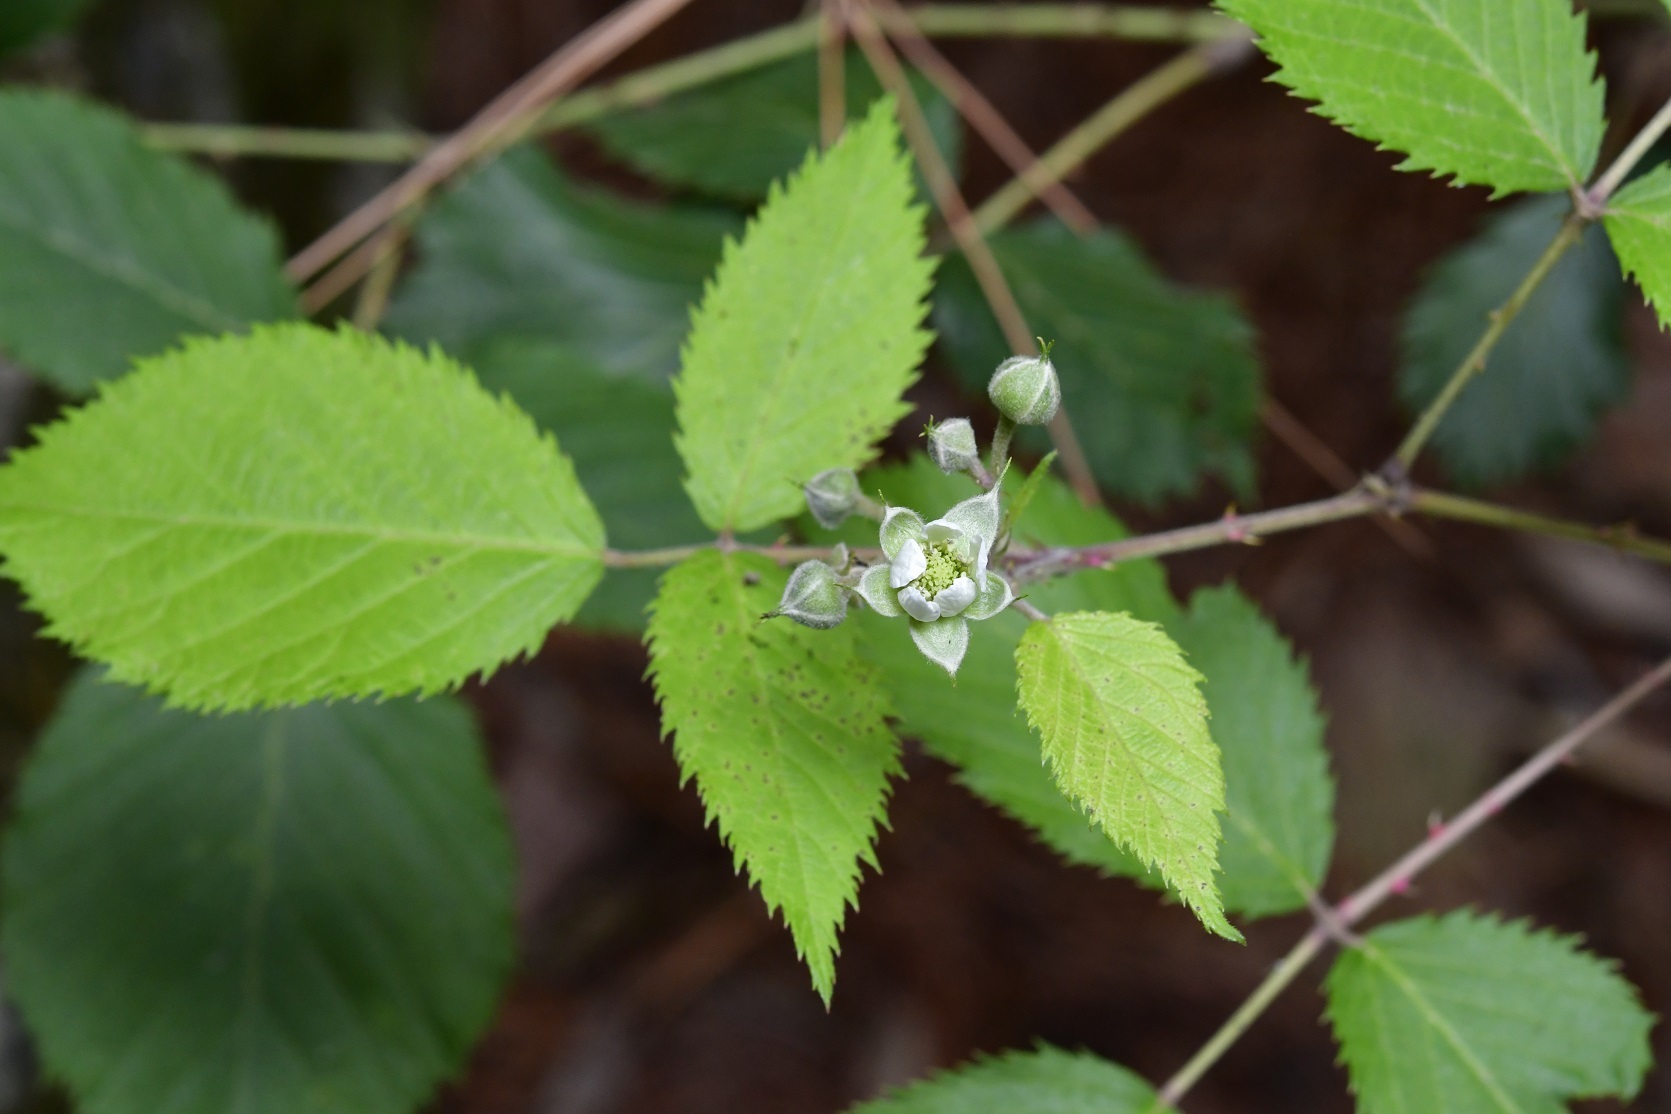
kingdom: Plantae
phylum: Tracheophyta
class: Magnoliopsida
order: Rosales
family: Rosaceae
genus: Rubus
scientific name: Rubus sapidus
